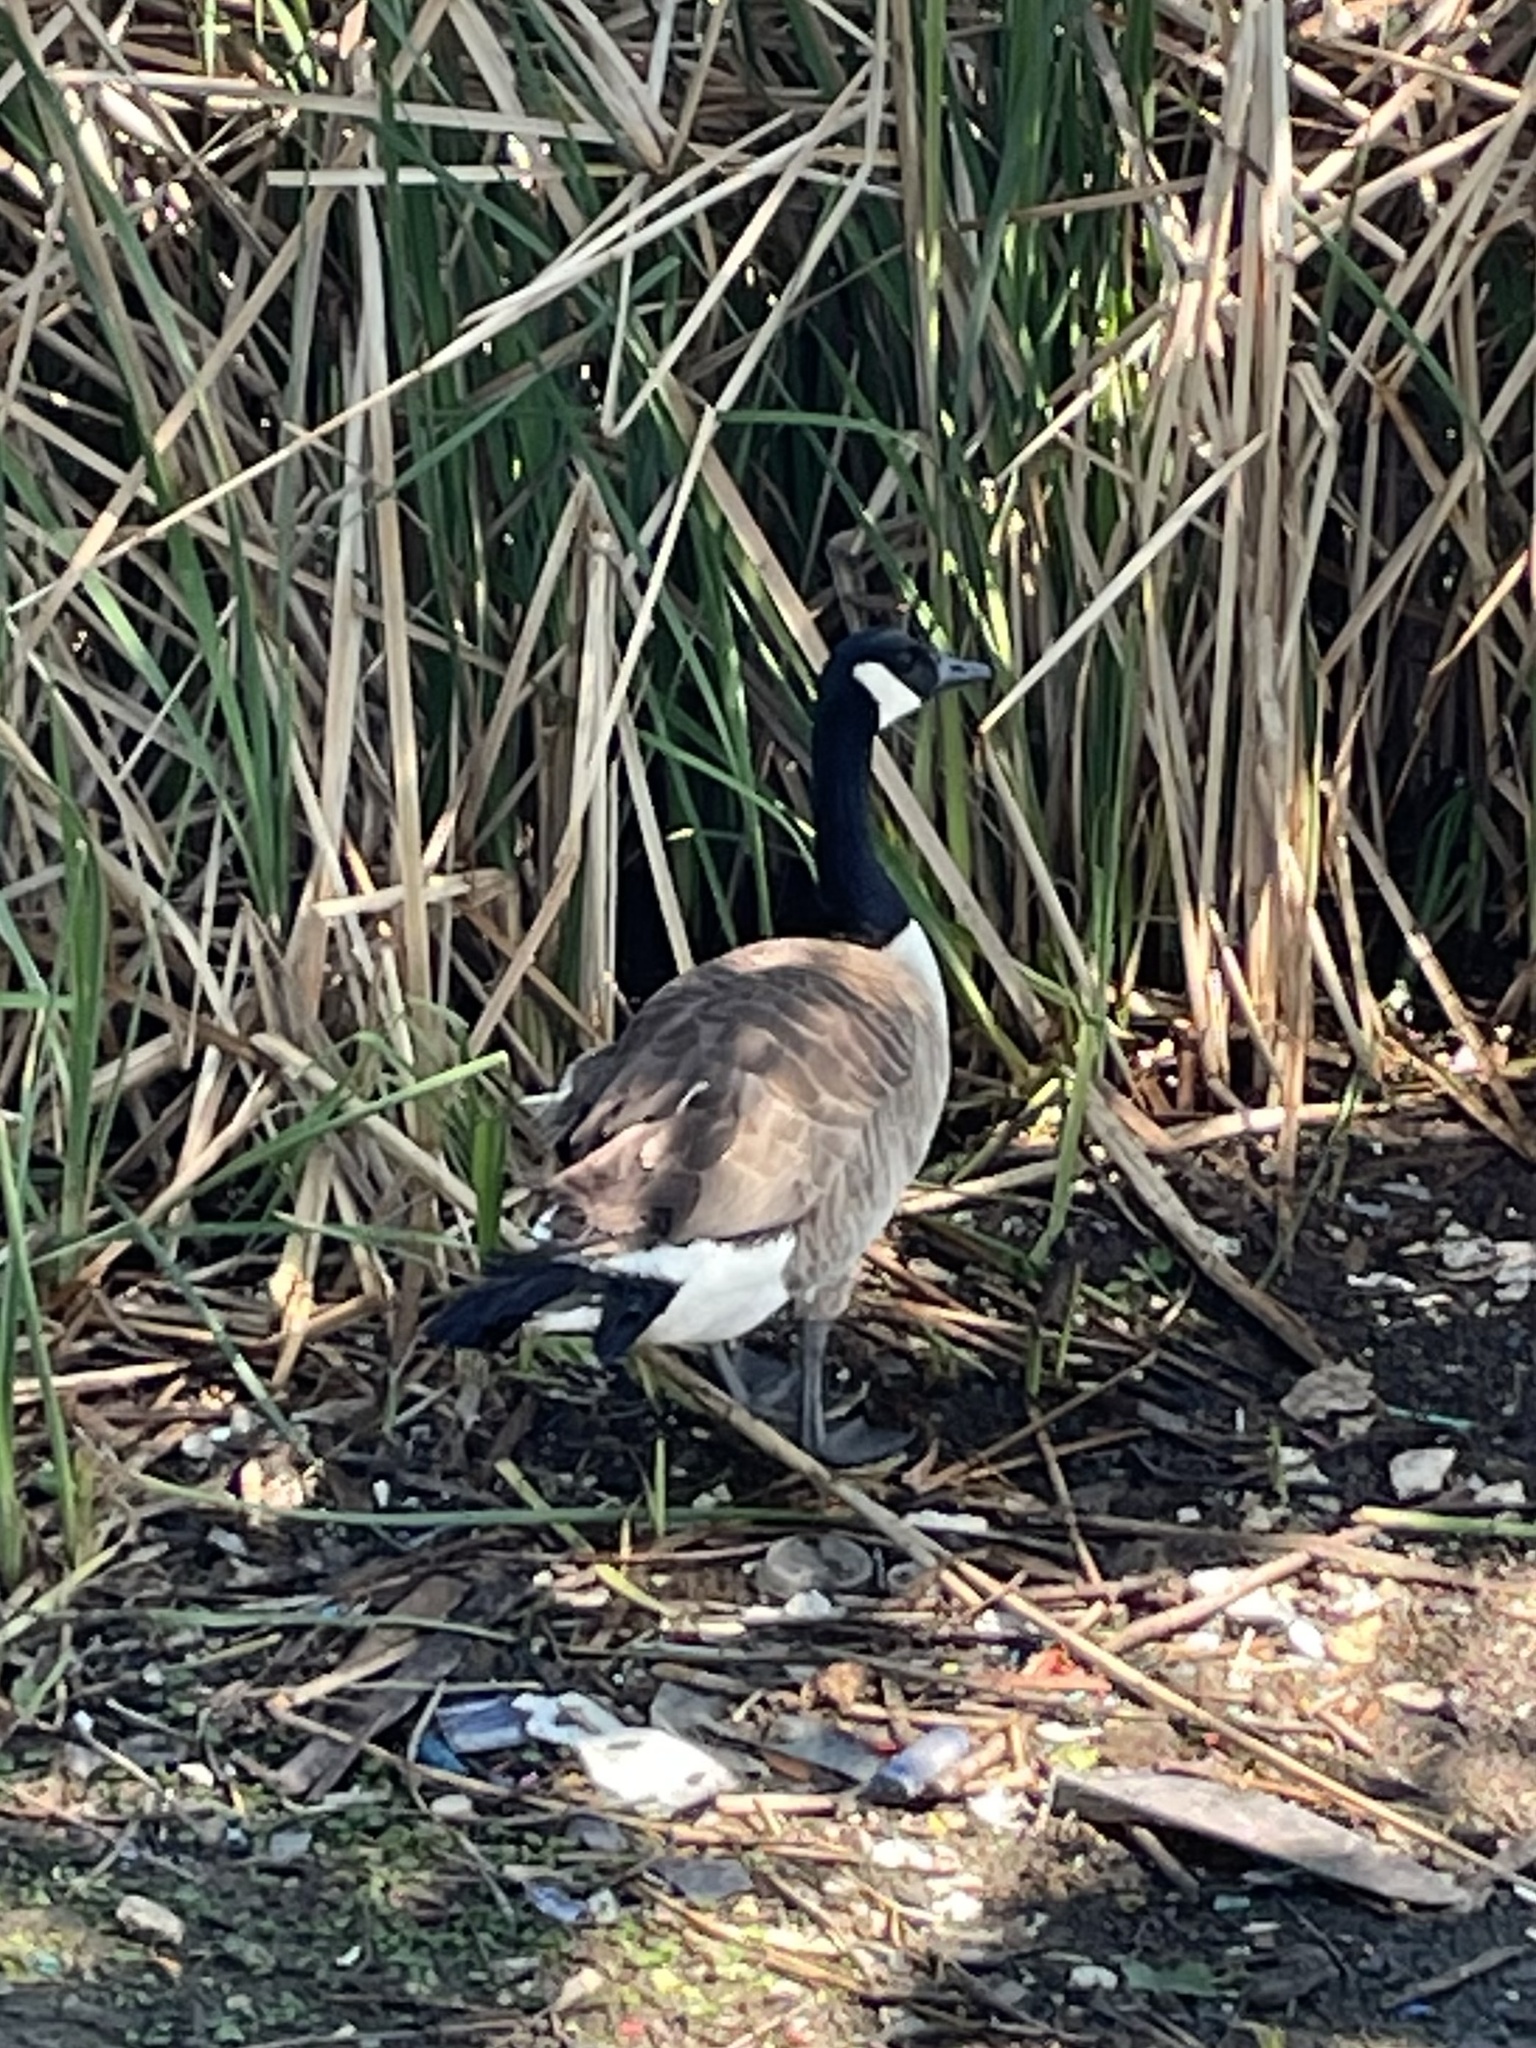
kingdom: Animalia
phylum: Chordata
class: Aves
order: Anseriformes
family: Anatidae
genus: Branta
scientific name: Branta canadensis
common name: Canada goose
